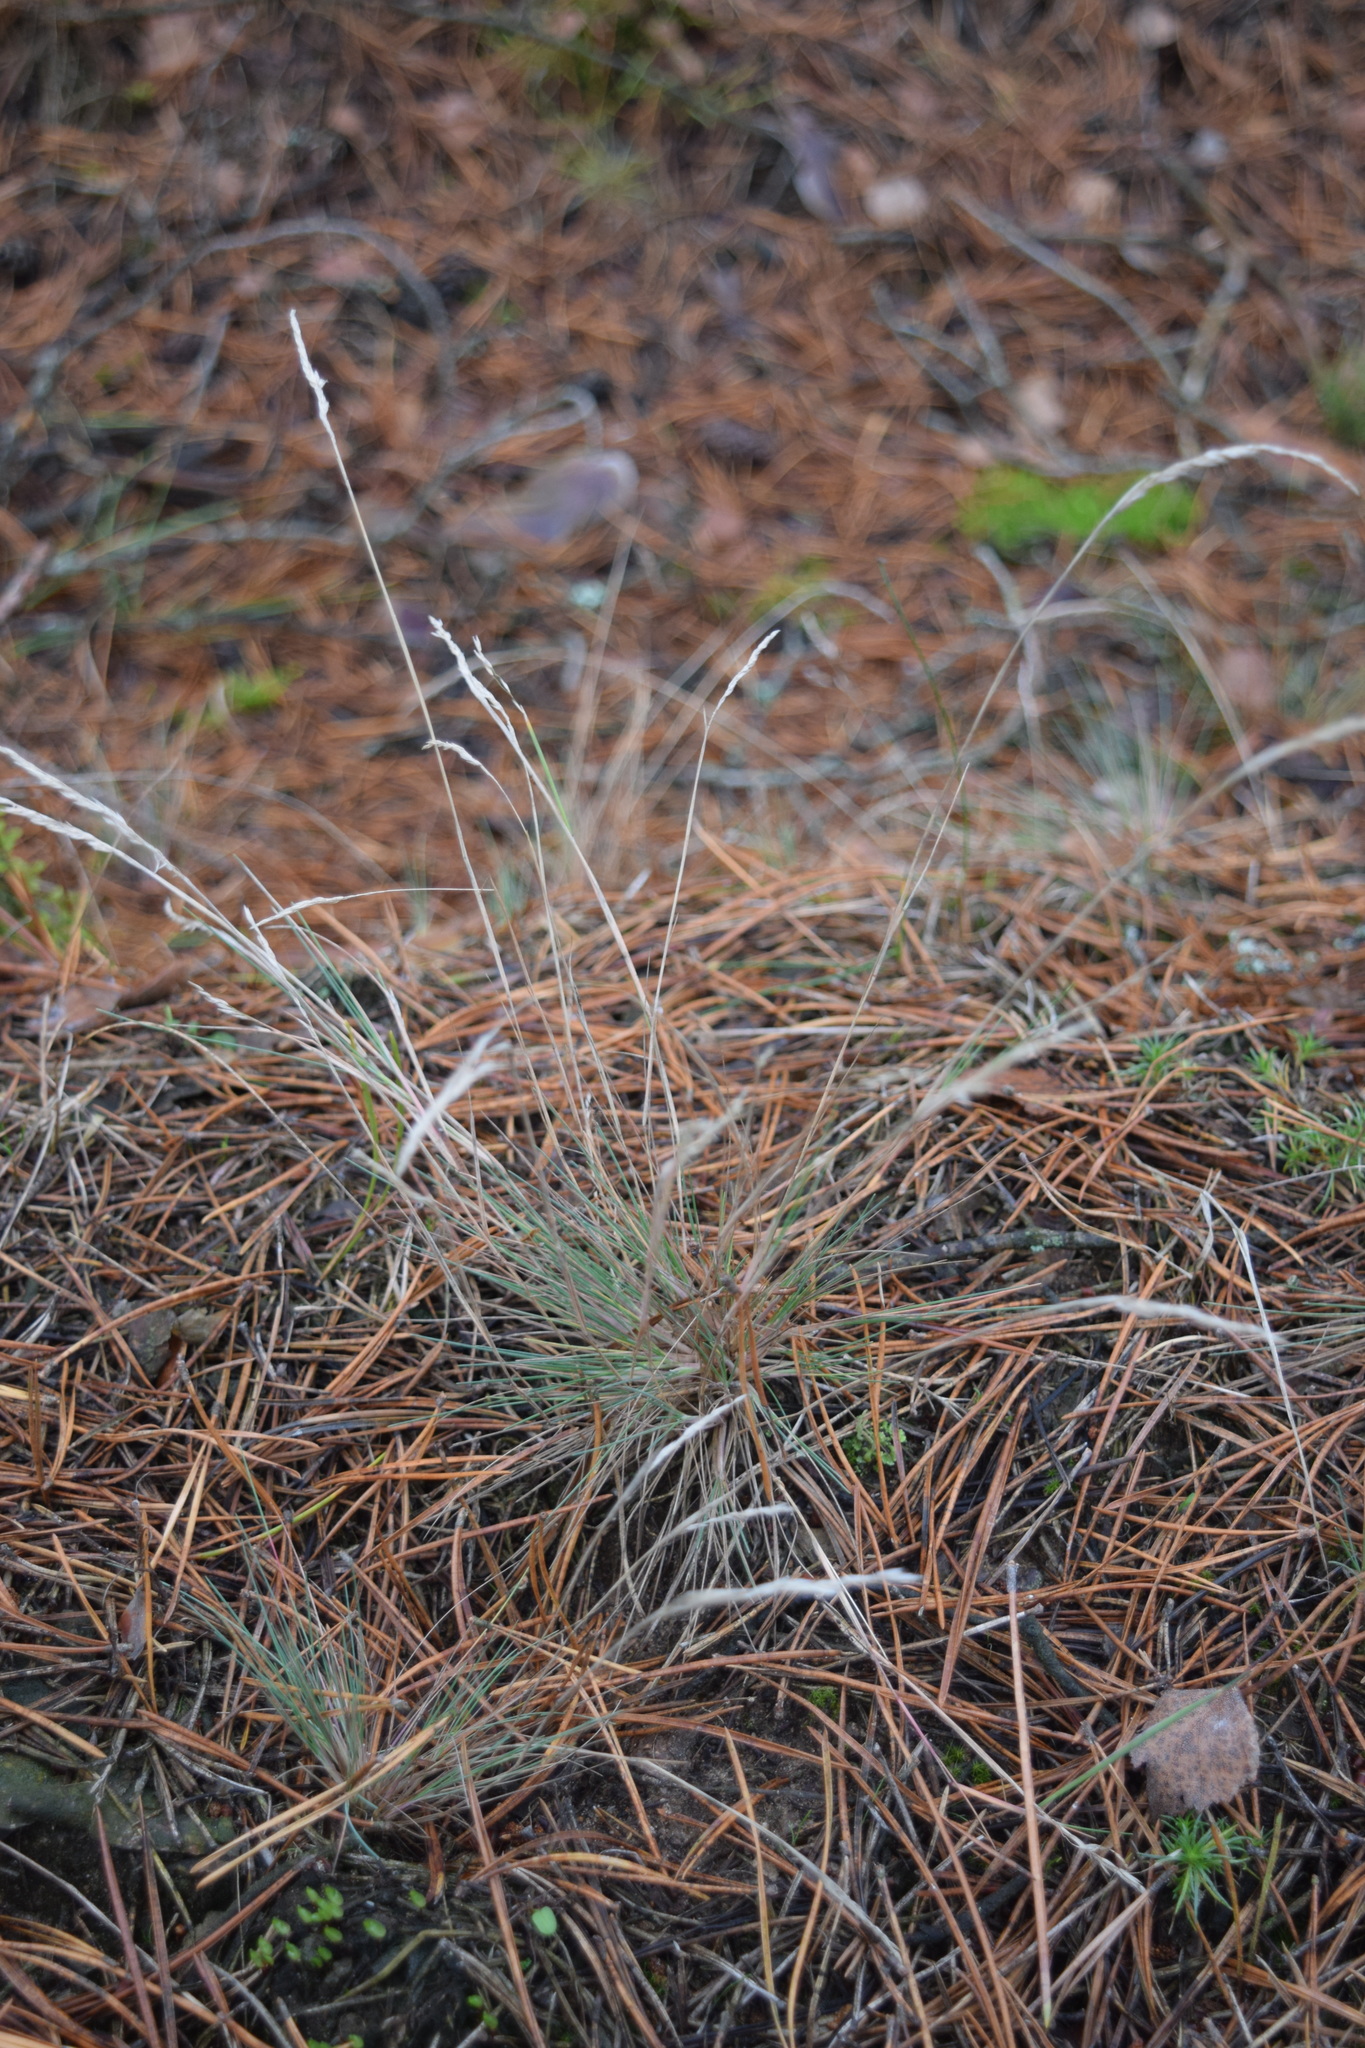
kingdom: Plantae
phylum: Tracheophyta
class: Liliopsida
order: Poales
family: Poaceae
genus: Corynephorus
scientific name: Corynephorus canescens
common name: Grey hair-grass
